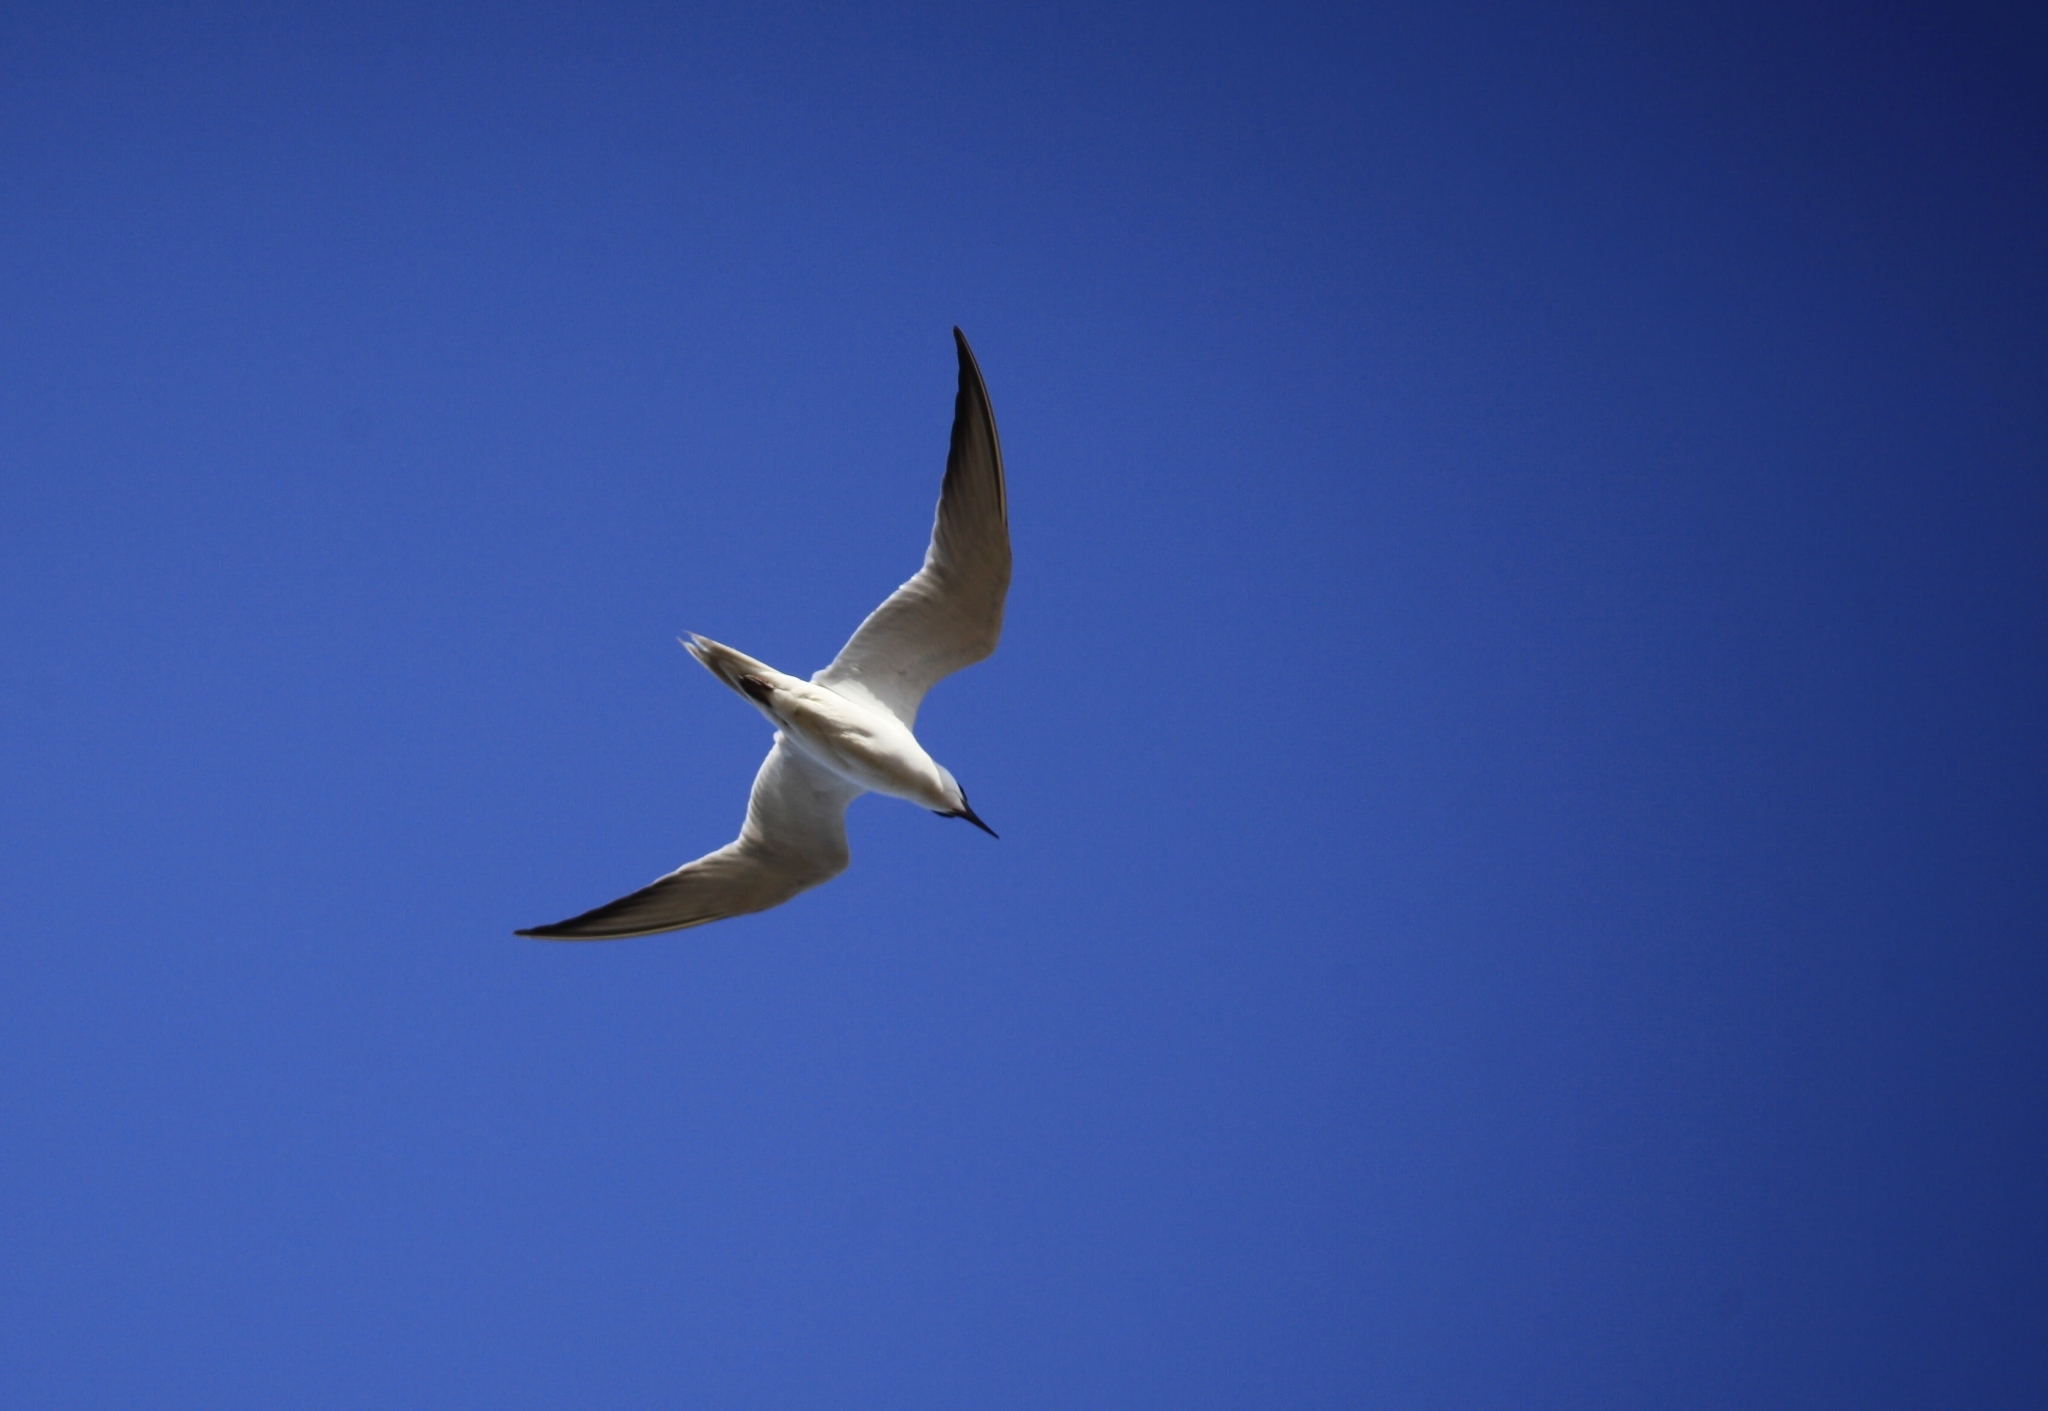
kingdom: Animalia
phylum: Chordata
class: Aves
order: Charadriiformes
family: Laridae
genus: Gelochelidon
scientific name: Gelochelidon nilotica
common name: Gull-billed tern
